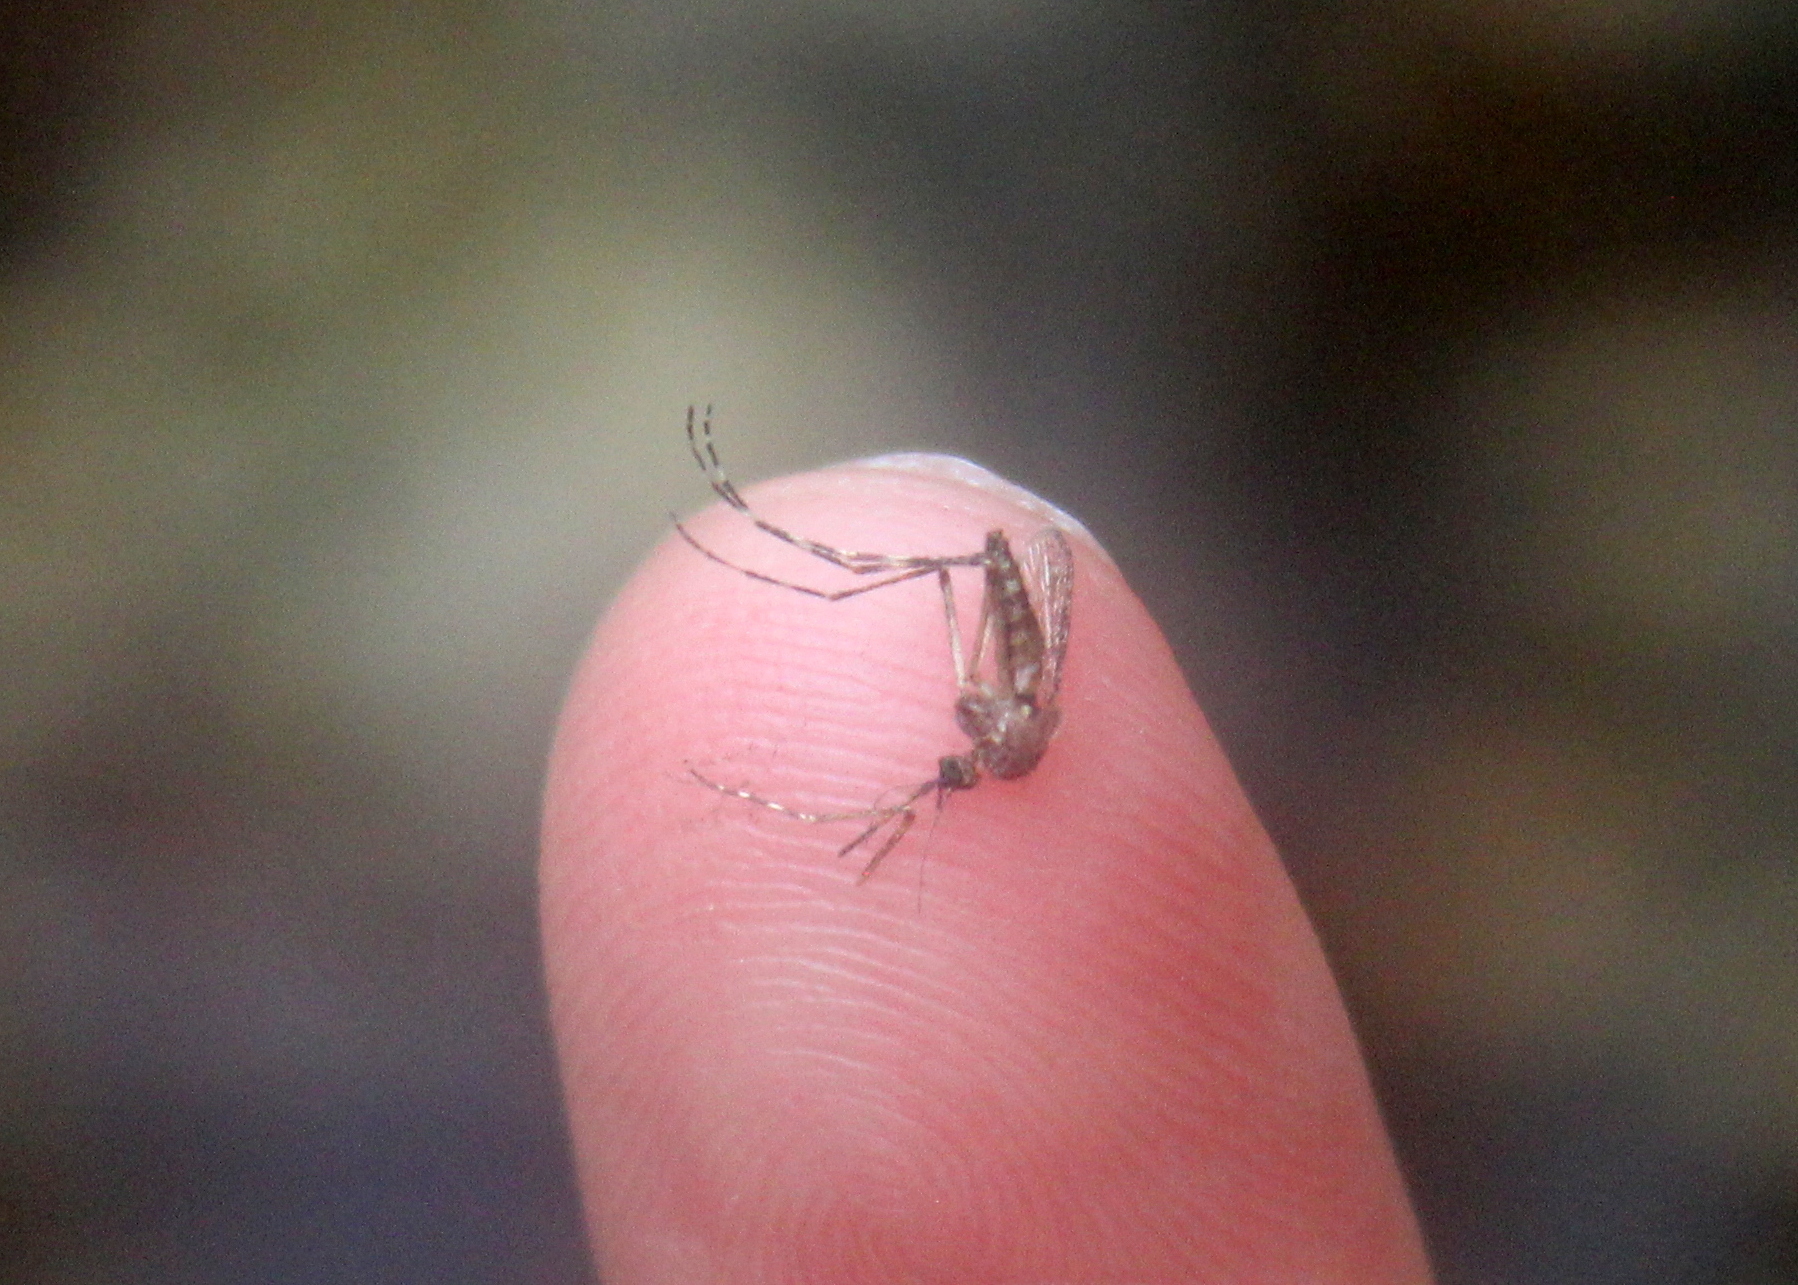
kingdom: Animalia
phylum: Arthropoda
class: Insecta
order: Diptera
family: Culicidae
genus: Coquillettidia
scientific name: Coquillettidia perturbans
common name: Cattail mosquito
